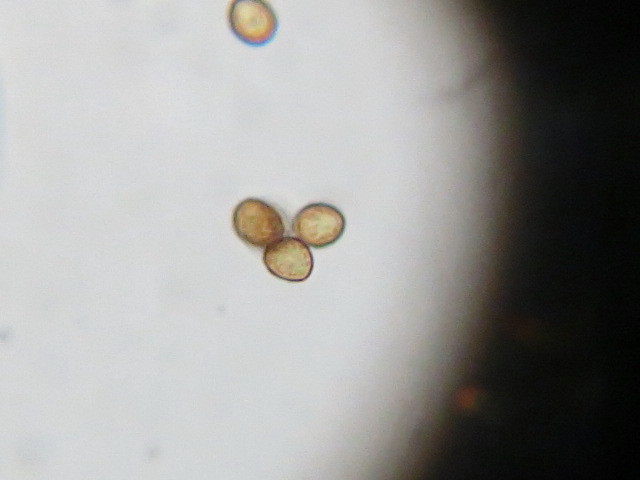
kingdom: Fungi
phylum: Basidiomycota
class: Agaricomycetes
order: Agaricales
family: Cortinariaceae
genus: Cortinarius
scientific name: Cortinarius
